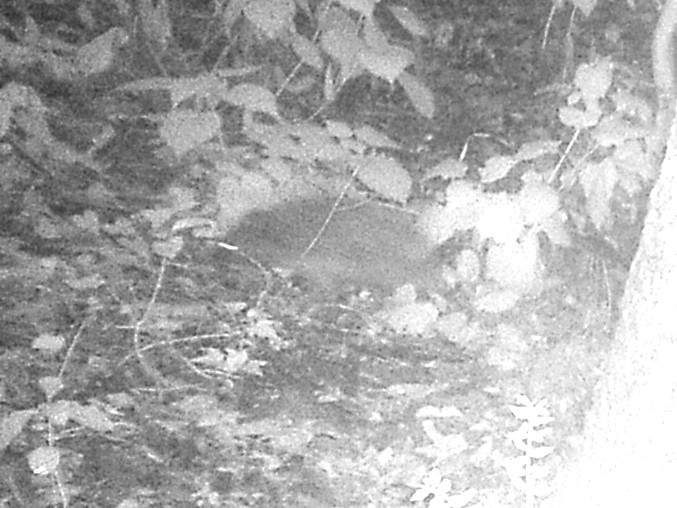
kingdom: Animalia
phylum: Chordata
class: Mammalia
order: Erinaceomorpha
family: Erinaceidae
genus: Erinaceus
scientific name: Erinaceus europaeus
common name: West european hedgehog
